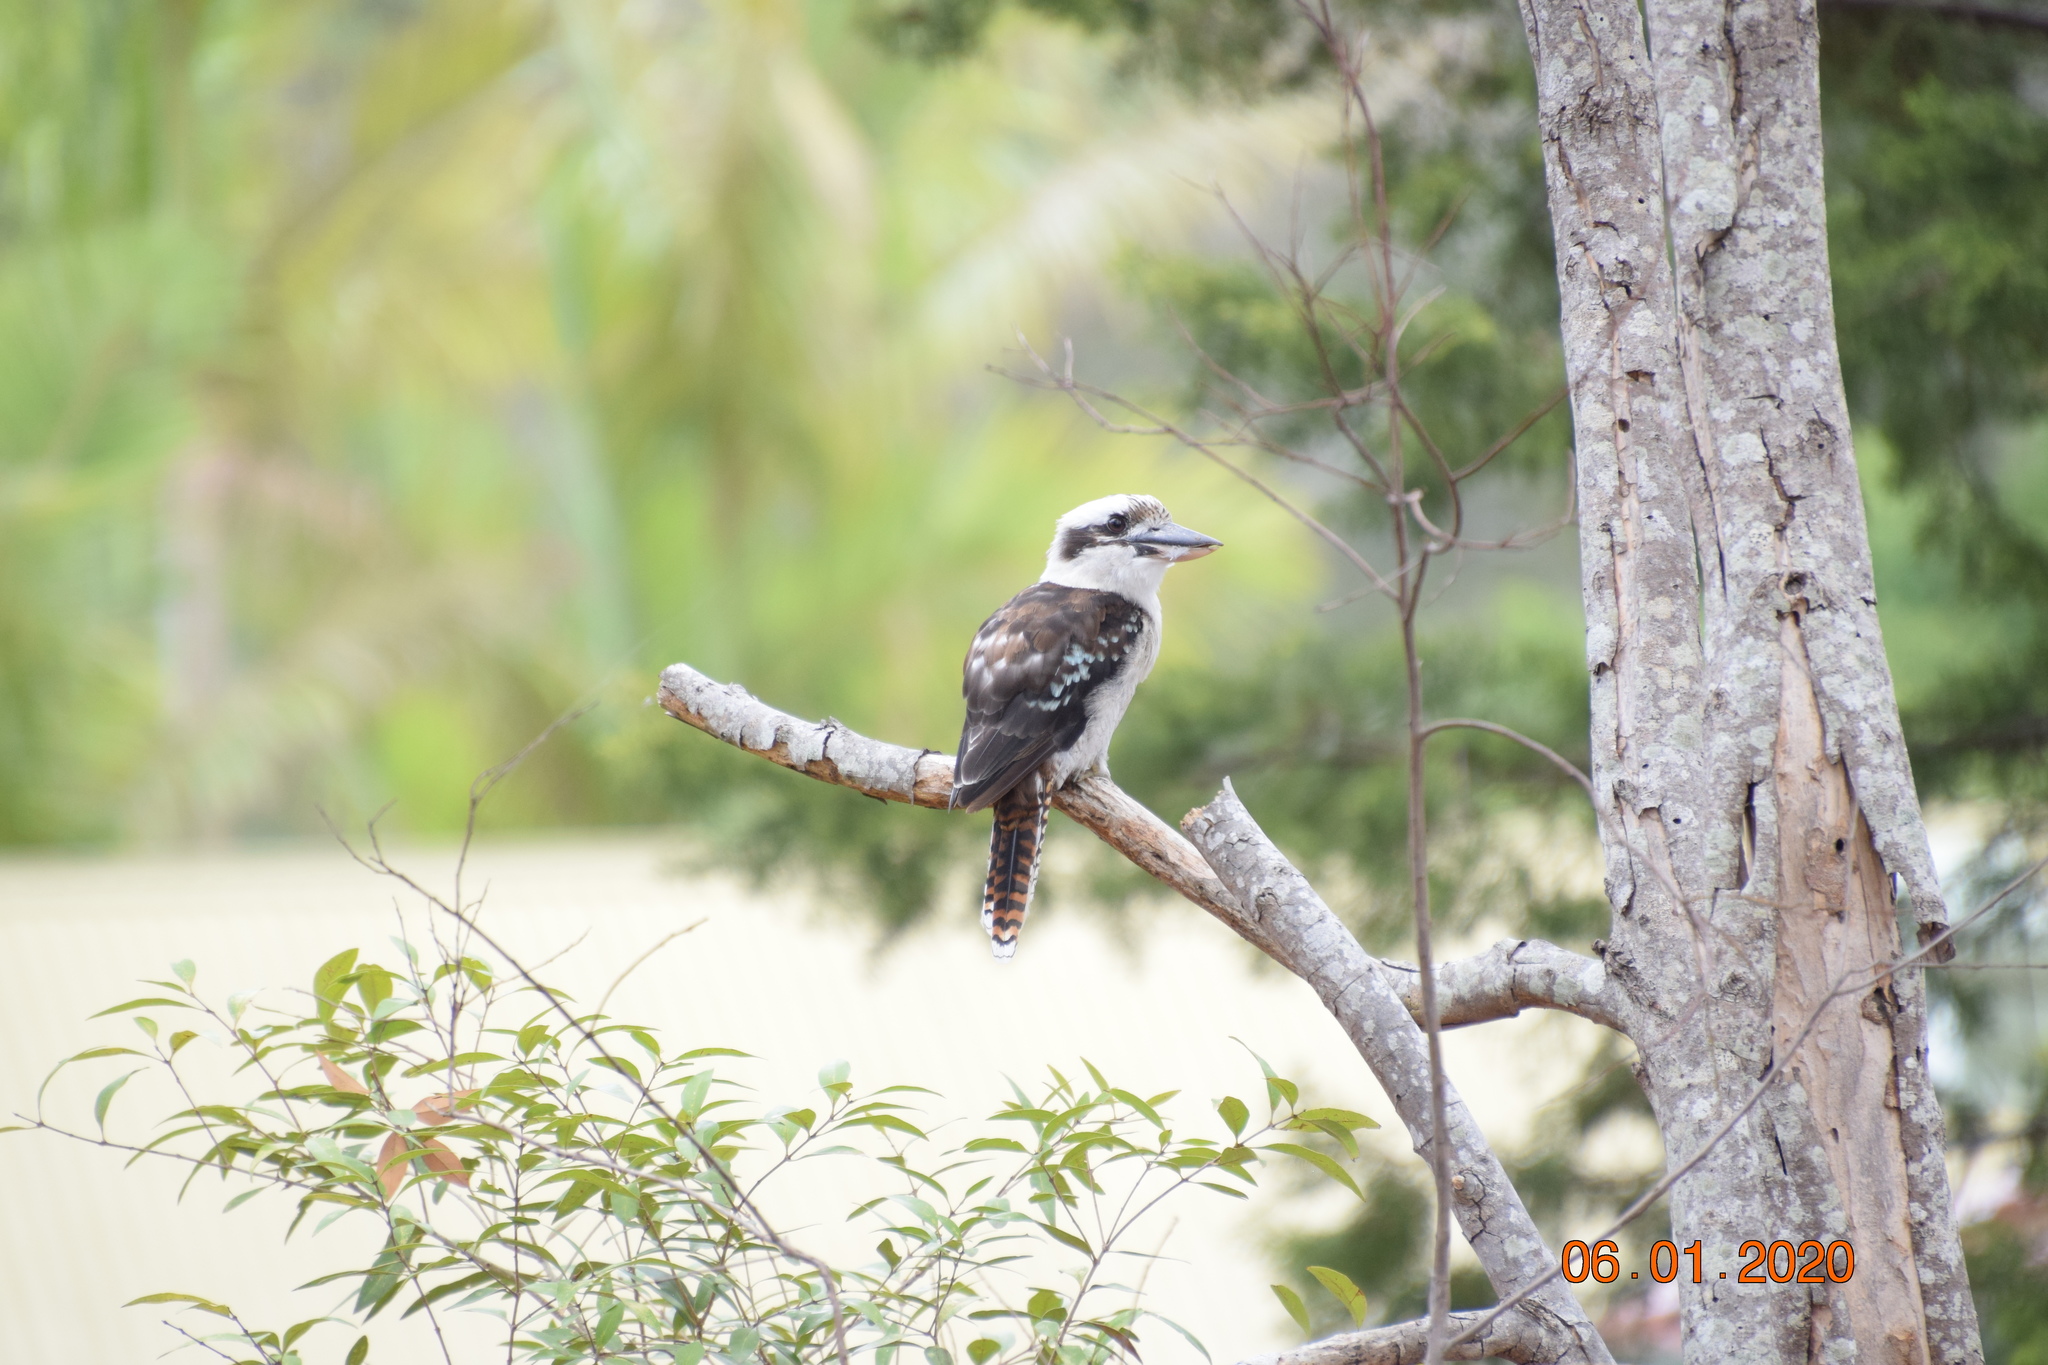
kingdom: Animalia
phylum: Chordata
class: Aves
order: Coraciiformes
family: Alcedinidae
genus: Dacelo
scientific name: Dacelo novaeguineae
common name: Laughing kookaburra
